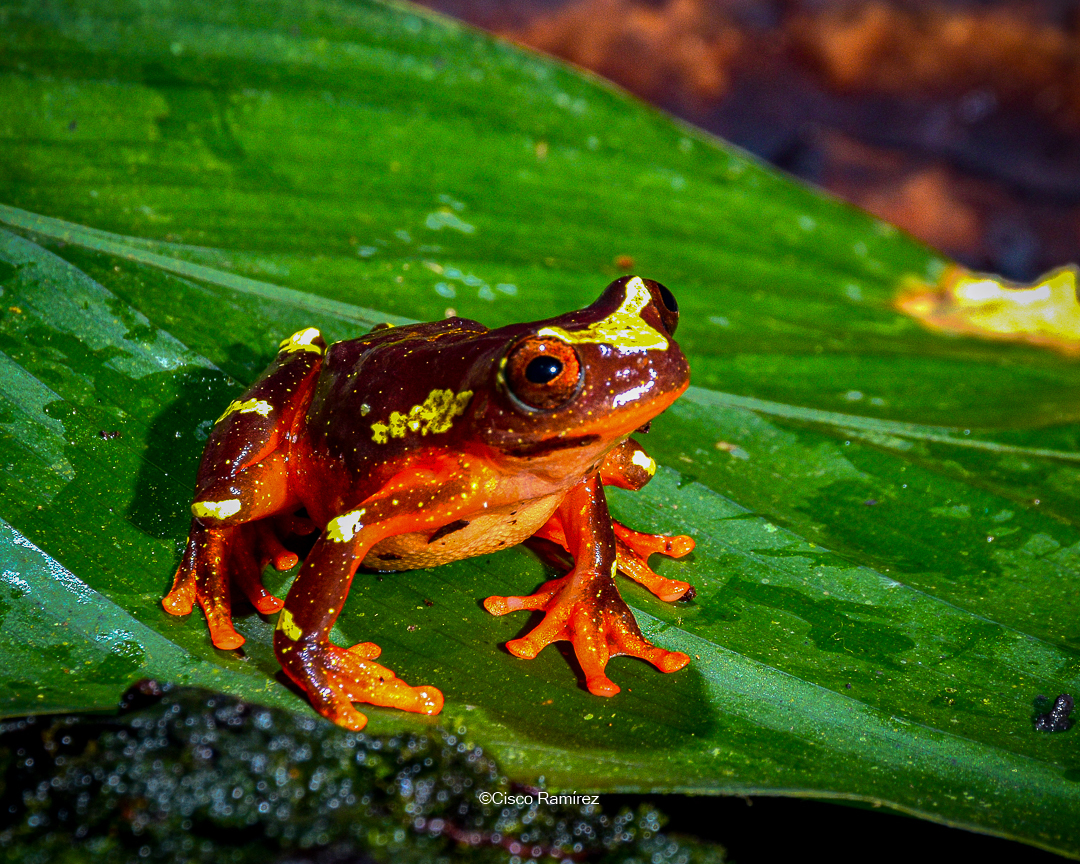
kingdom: Animalia
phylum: Chordata
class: Amphibia
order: Anura
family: Hylidae
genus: Dendropsophus
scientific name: Dendropsophus sarayacuensis
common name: Shreve's sarayacu treefrog
